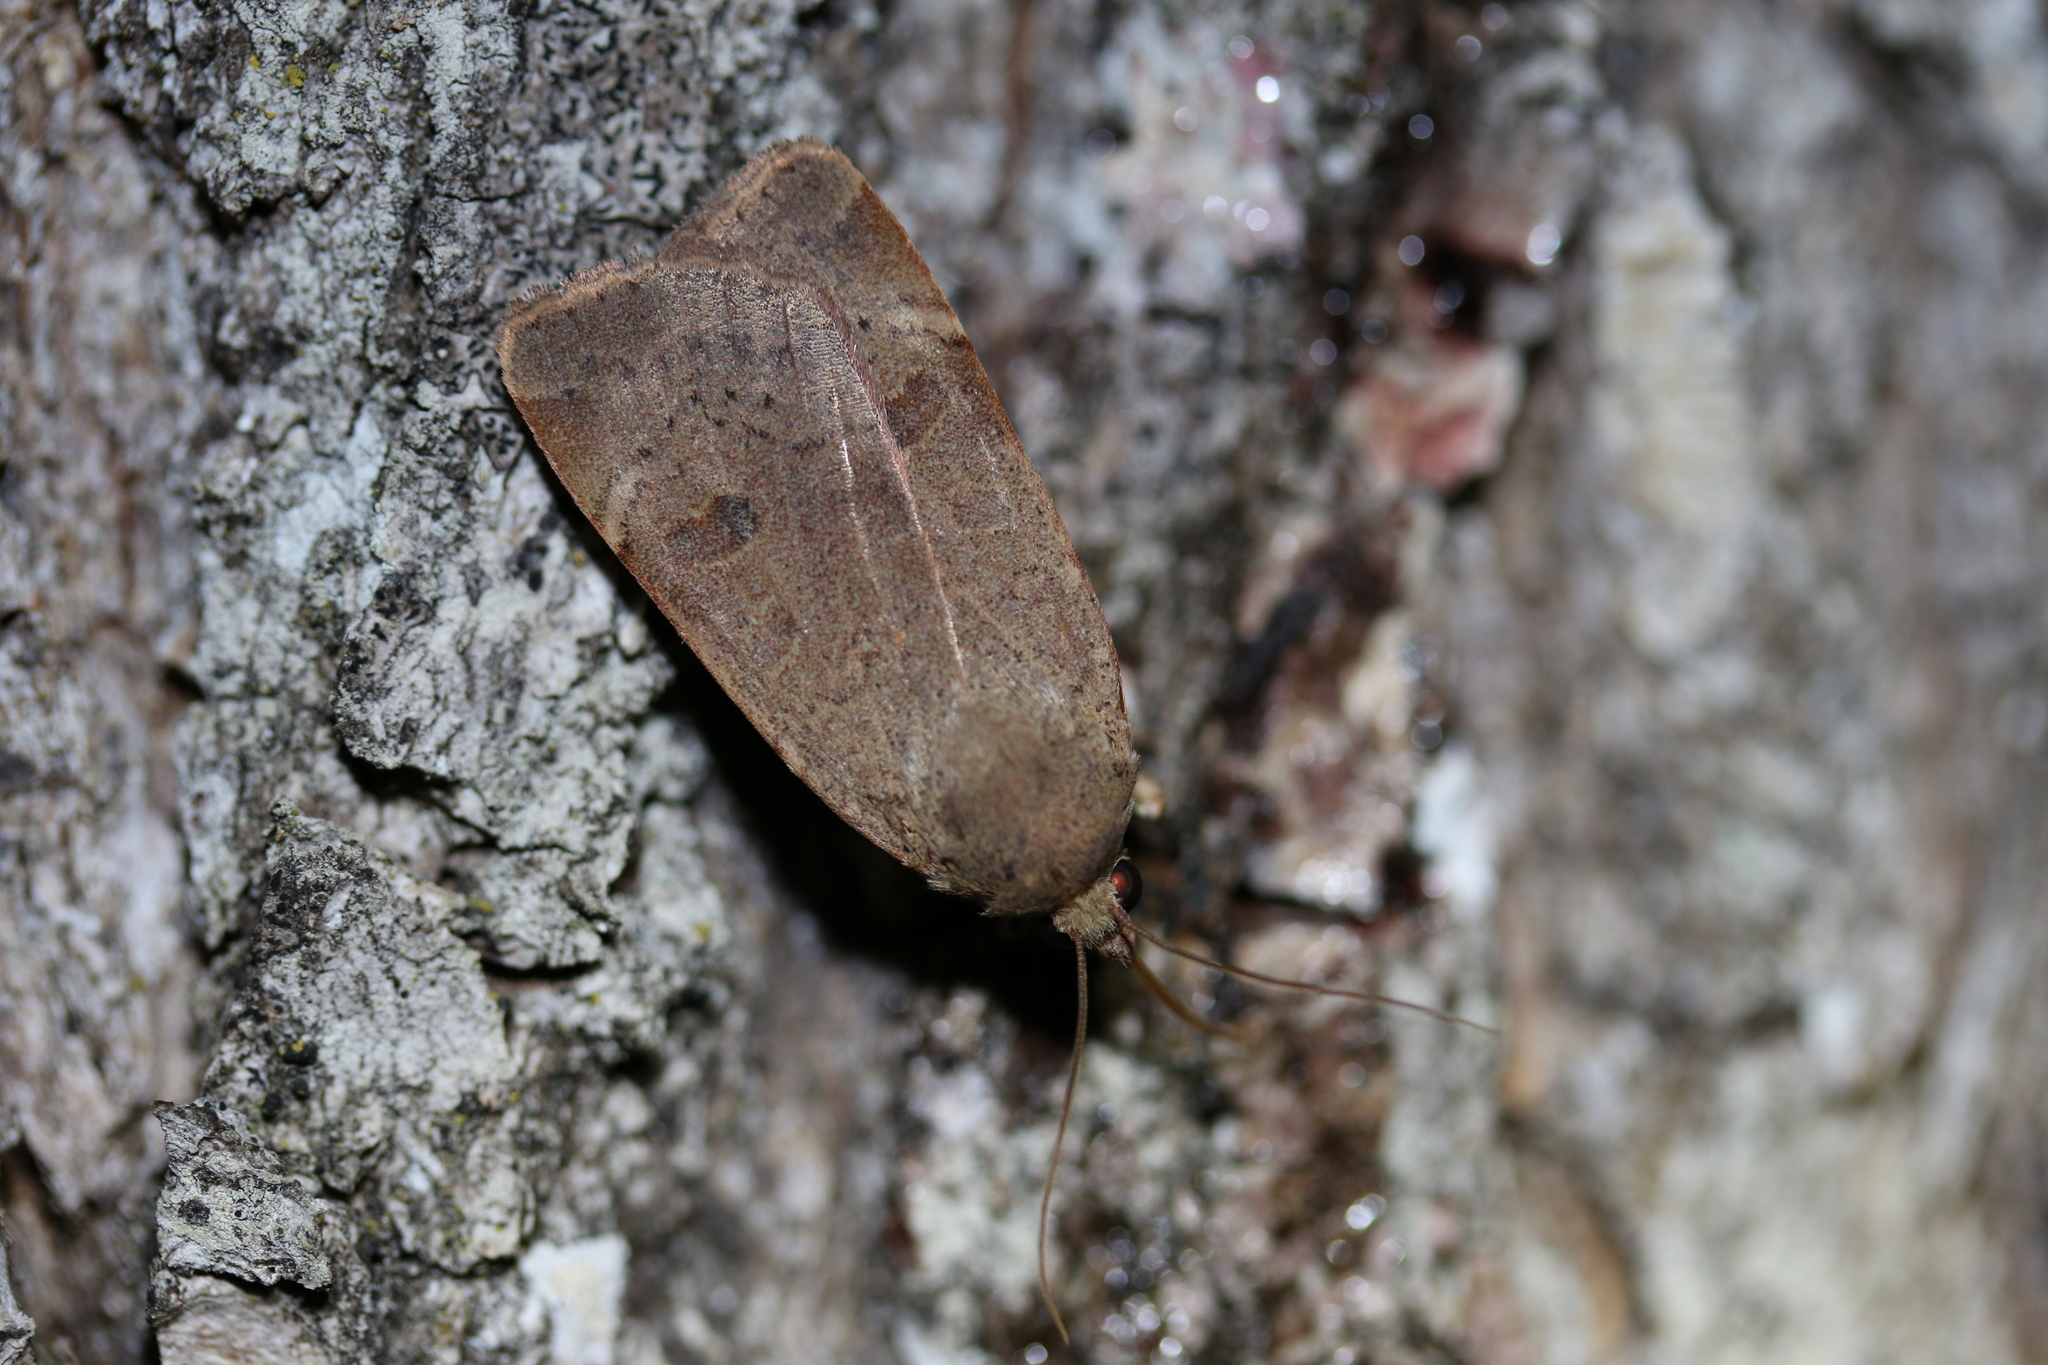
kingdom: Animalia
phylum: Arthropoda
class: Insecta
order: Lepidoptera
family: Noctuidae
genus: Noctua
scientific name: Noctua comes
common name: Lesser yellow underwing
